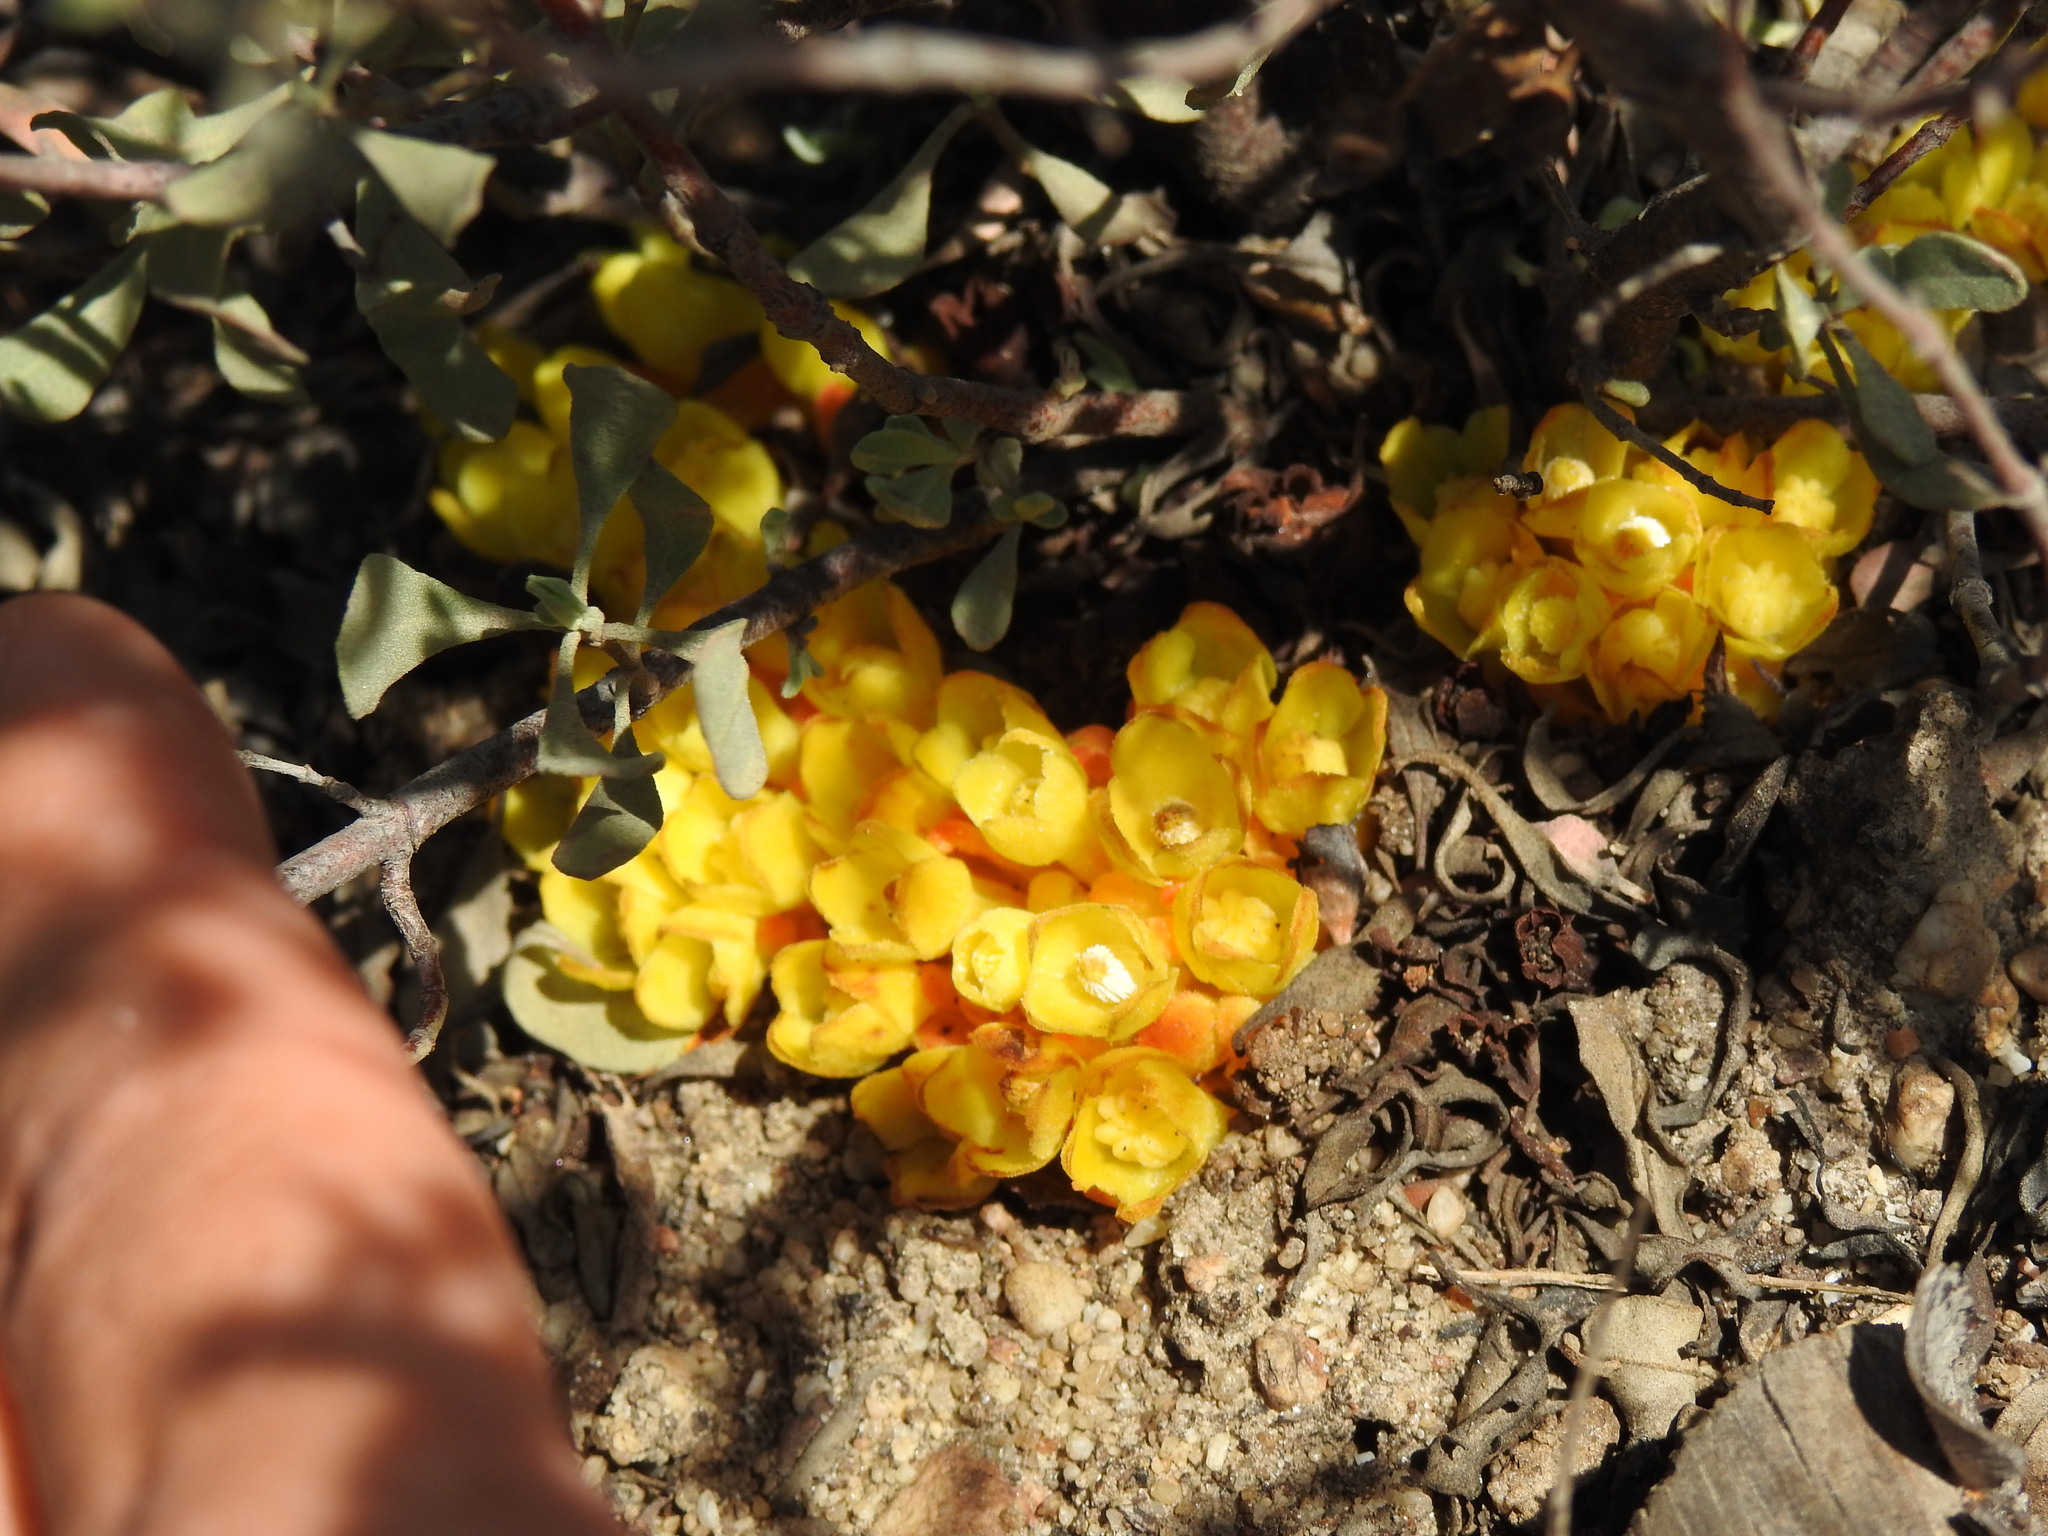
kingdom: Plantae
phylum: Tracheophyta
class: Magnoliopsida
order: Malvales
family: Cytinaceae
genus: Cytinus
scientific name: Cytinus hypocistis
